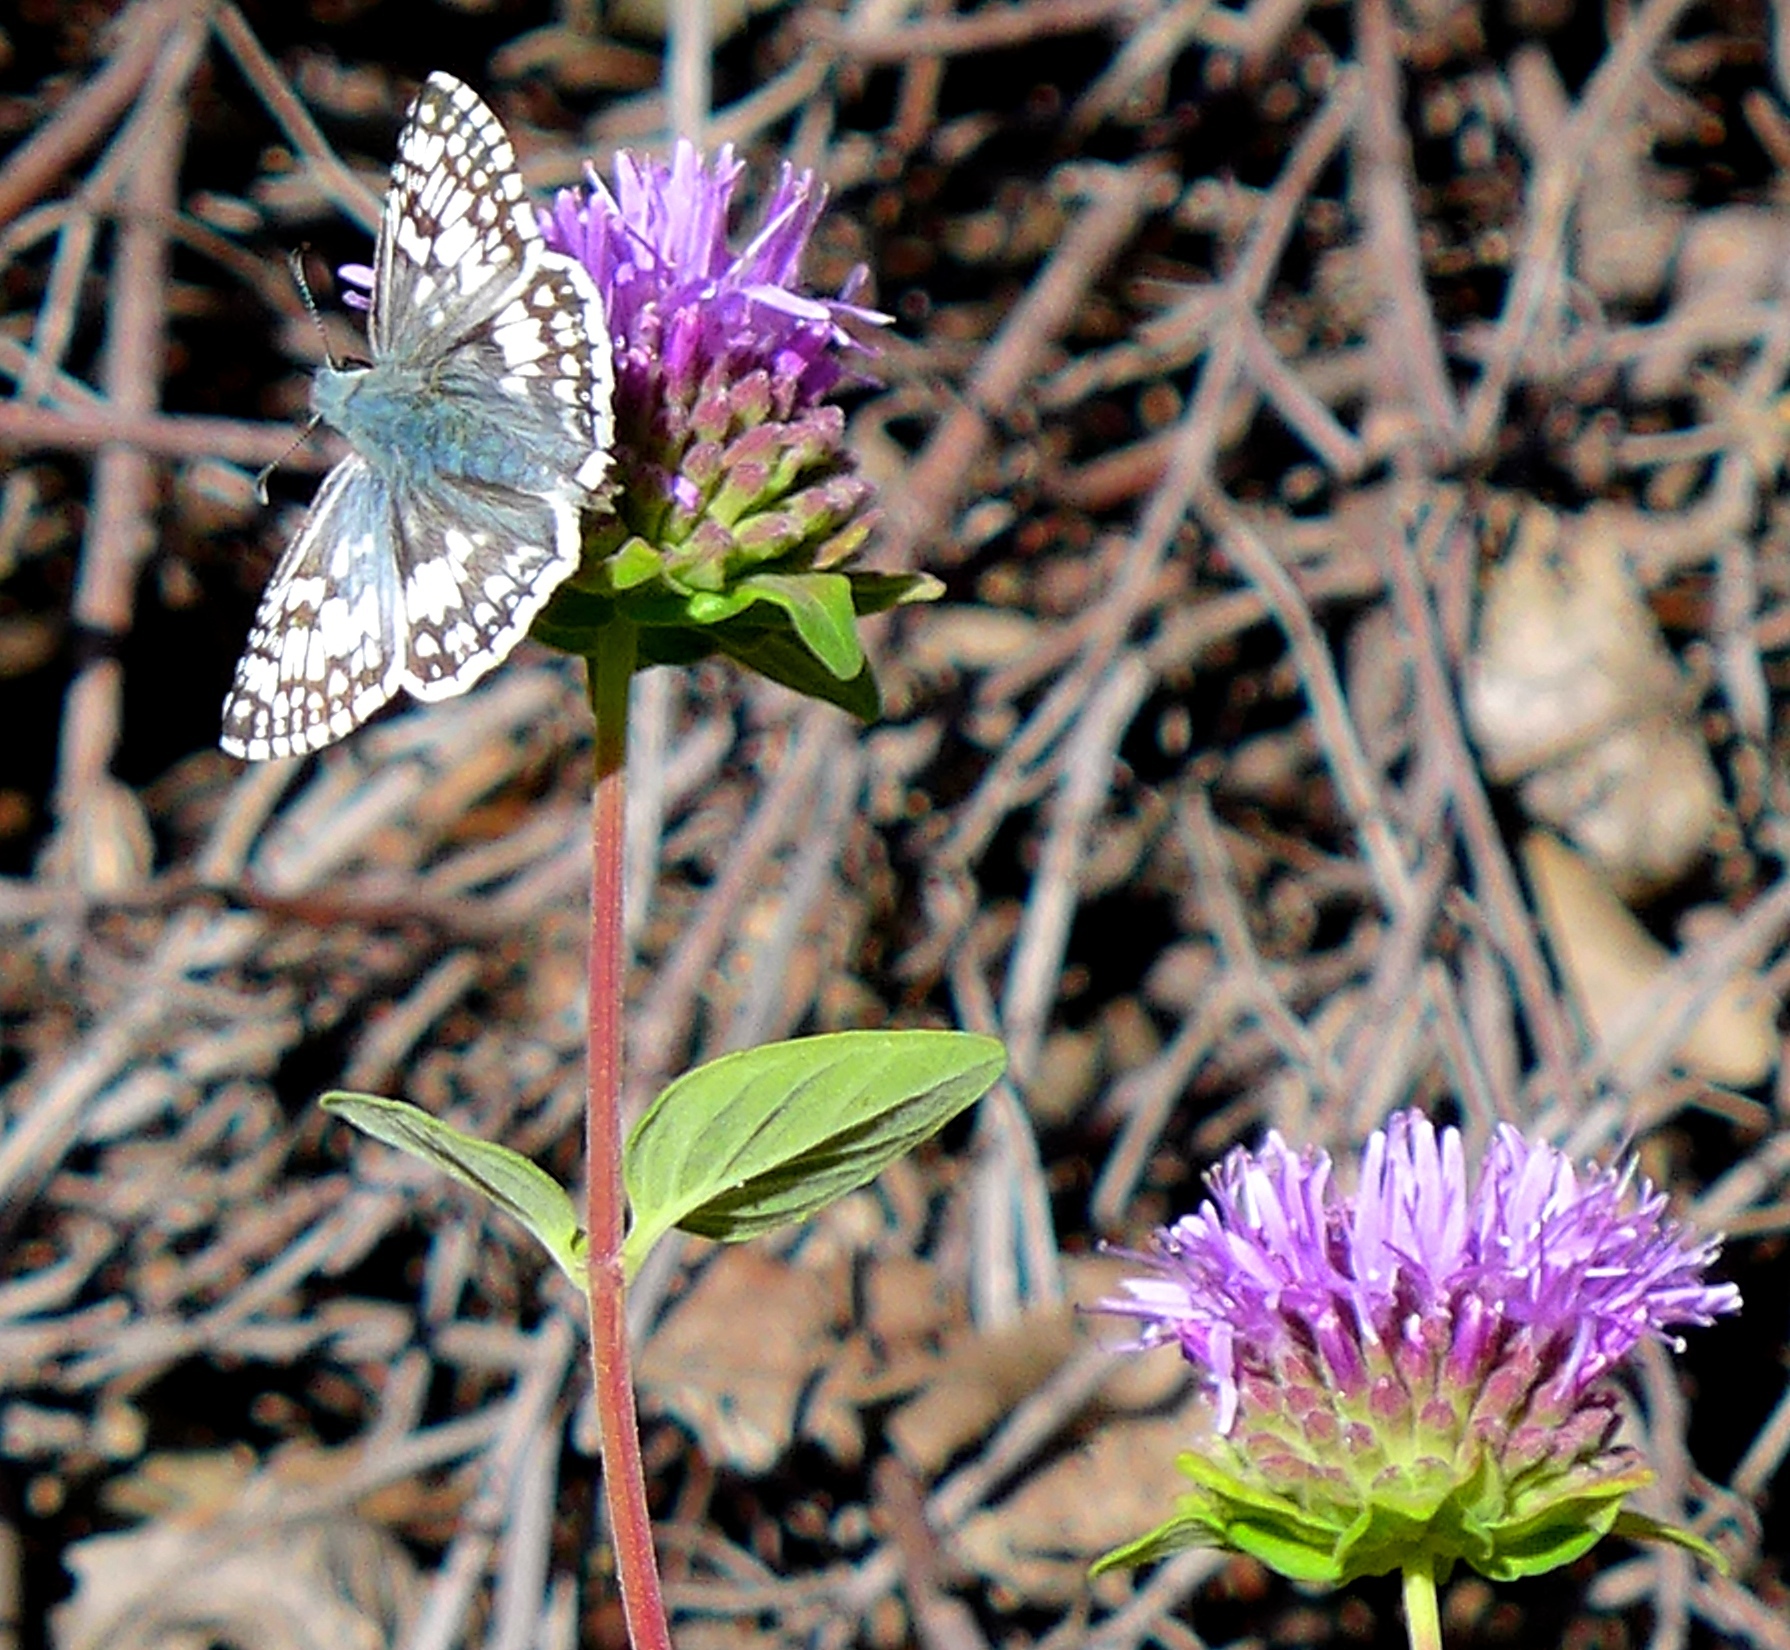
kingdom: Animalia
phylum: Arthropoda
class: Insecta
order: Lepidoptera
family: Hesperiidae
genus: Burnsius
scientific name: Burnsius communis
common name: Common checkered-skipper
